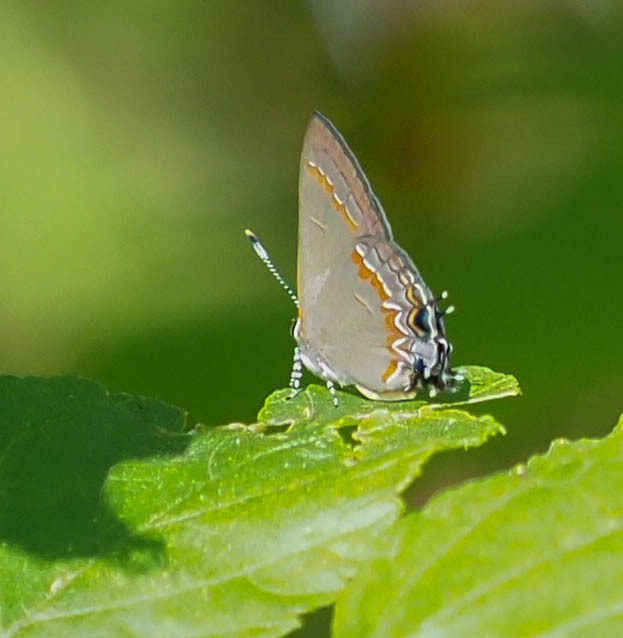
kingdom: Animalia
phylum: Arthropoda
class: Insecta
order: Lepidoptera
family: Lycaenidae
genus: Calycopis
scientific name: Calycopis cecrops
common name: Red-banded hairstreak
